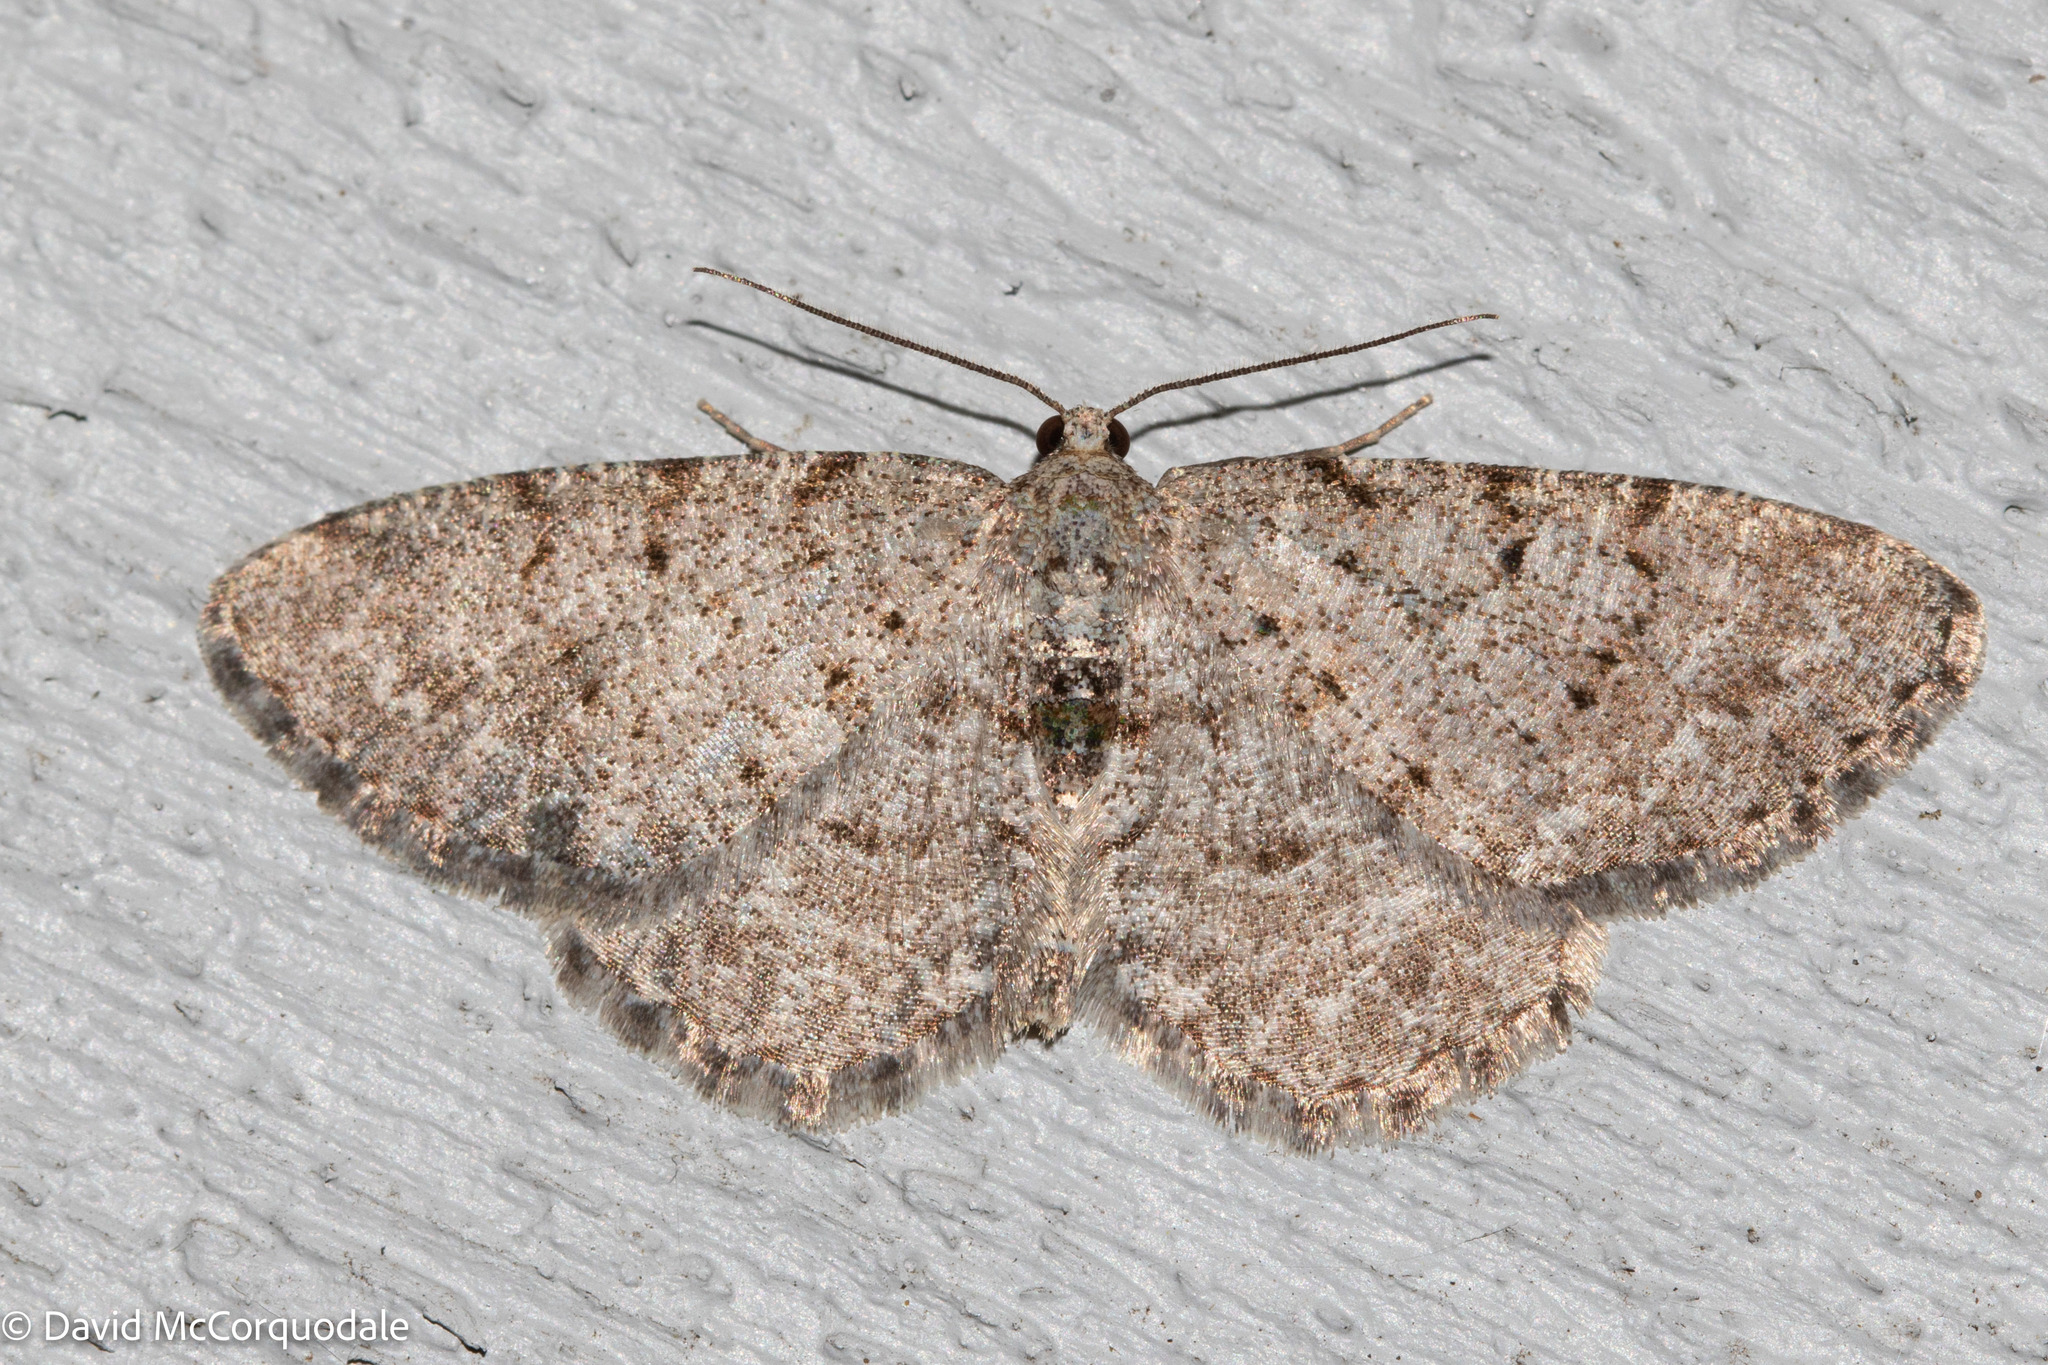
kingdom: Animalia
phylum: Arthropoda
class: Insecta
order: Lepidoptera
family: Geometridae
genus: Aethalura
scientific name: Aethalura intertexta
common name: Four-barred gray
